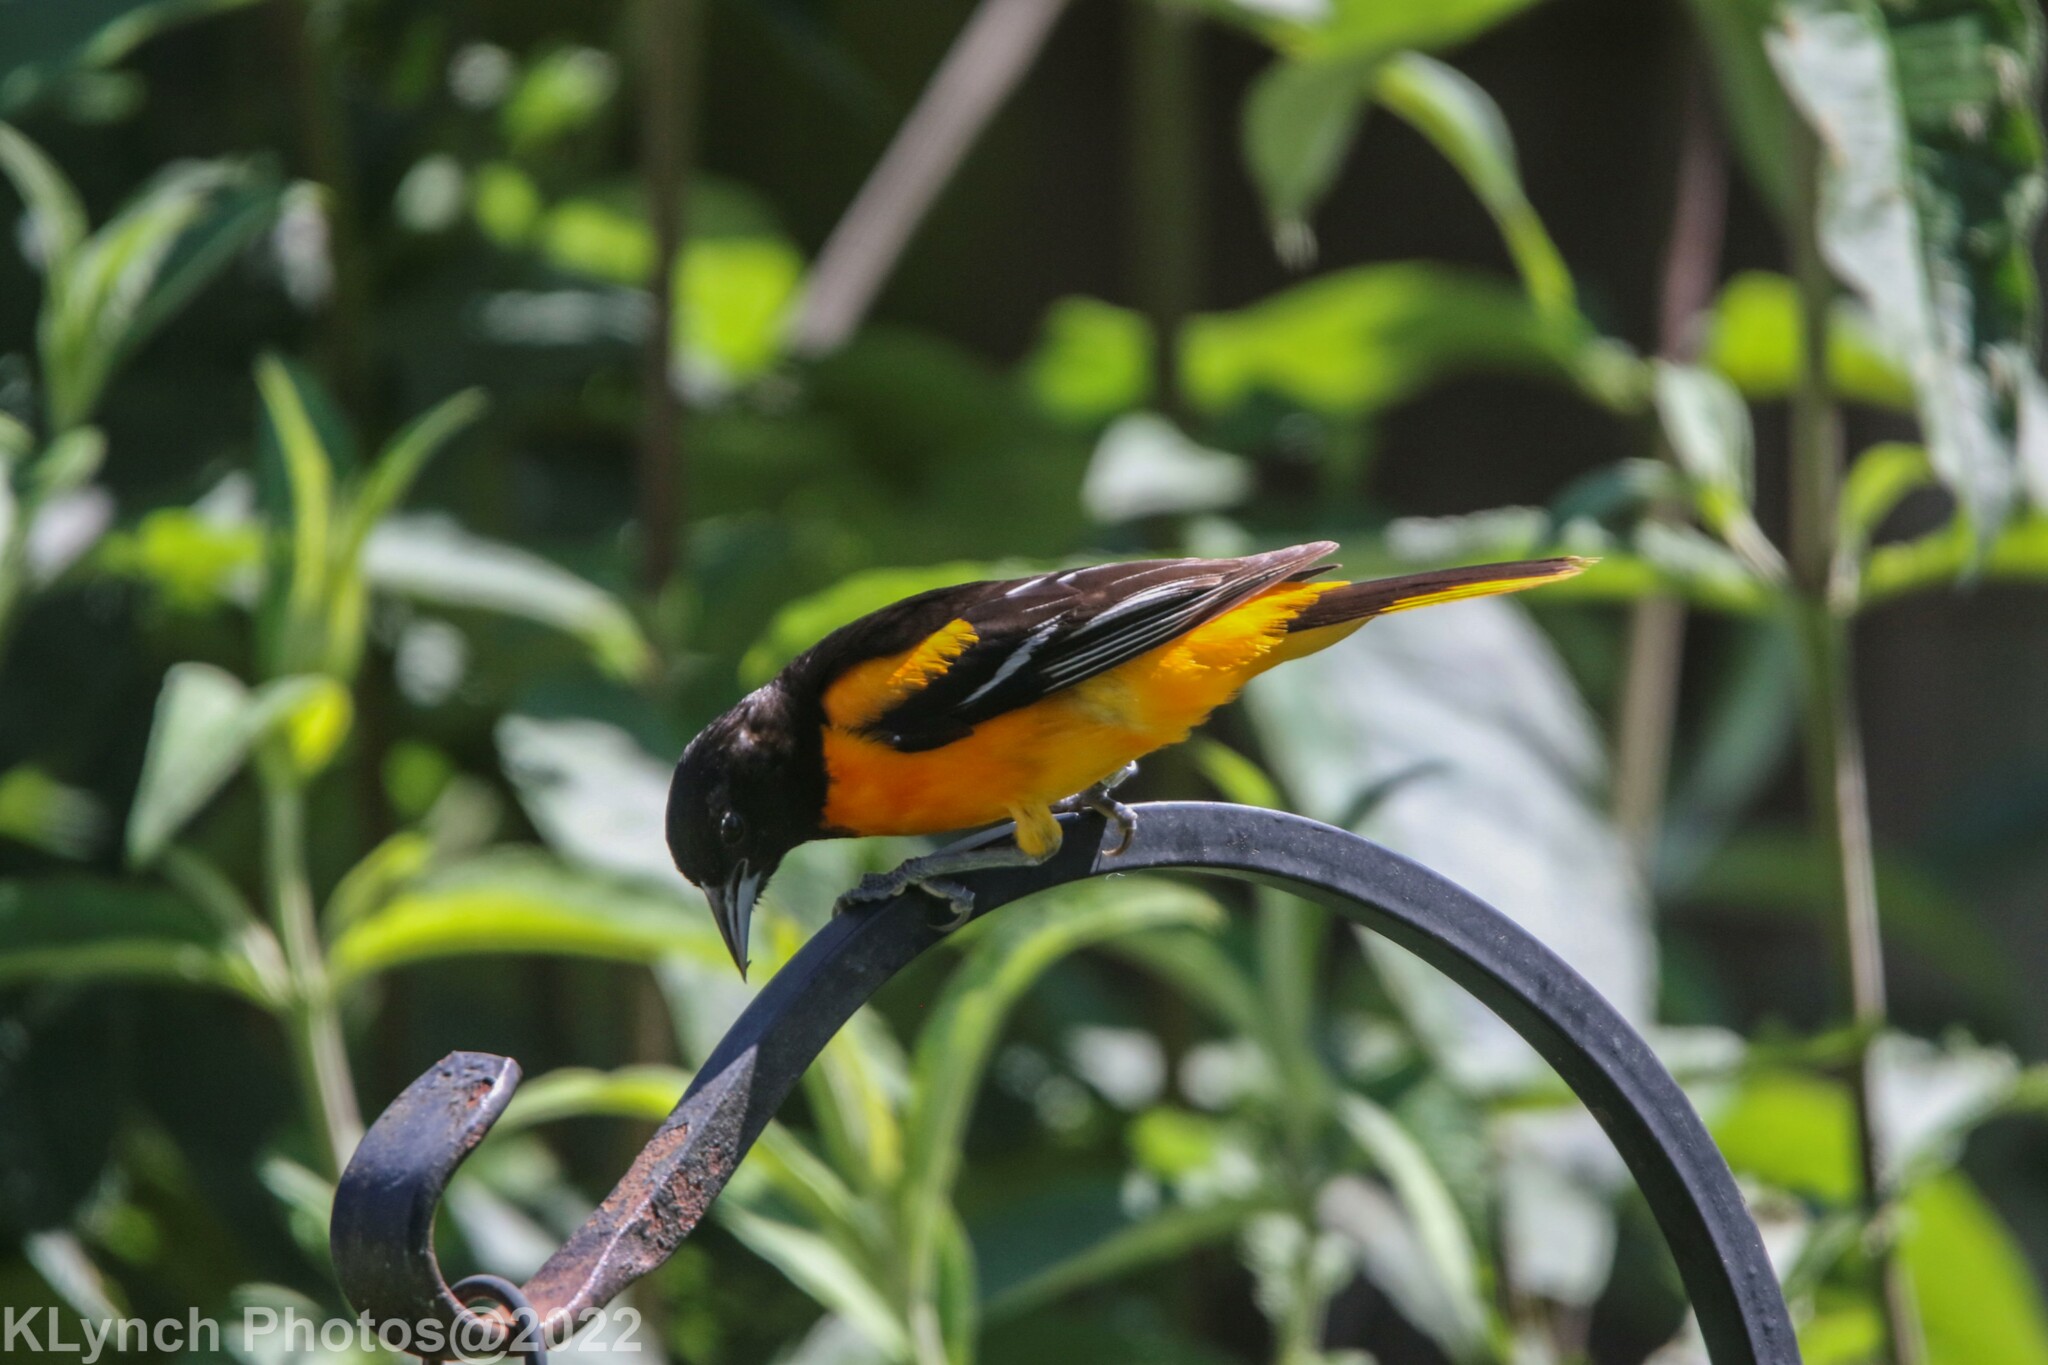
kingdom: Animalia
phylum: Chordata
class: Aves
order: Passeriformes
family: Icteridae
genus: Icterus
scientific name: Icterus galbula
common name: Baltimore oriole
